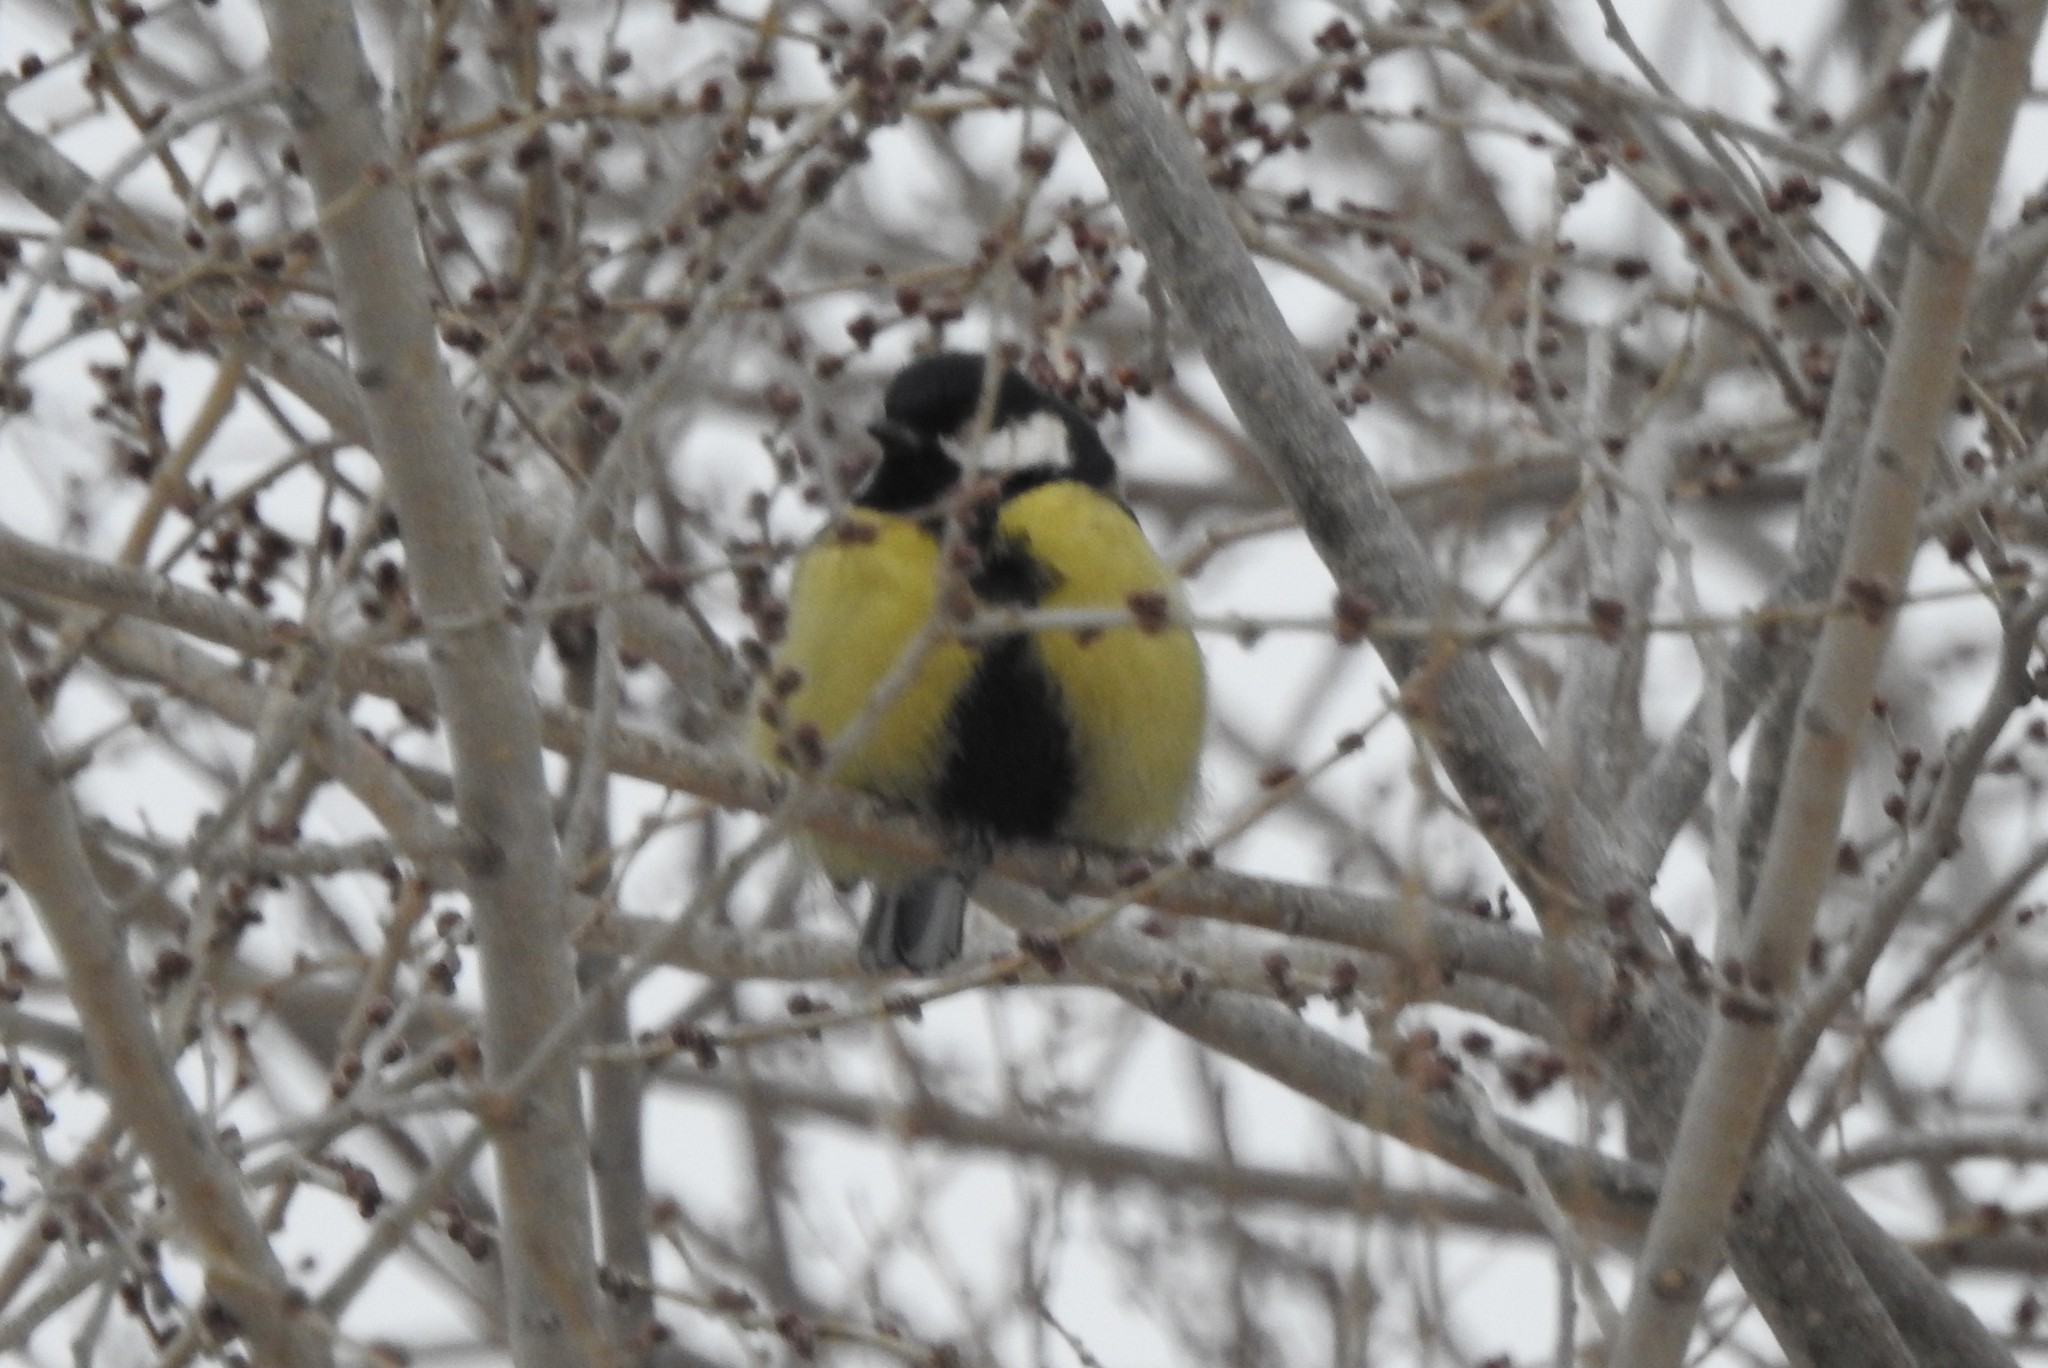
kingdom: Animalia
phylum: Chordata
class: Aves
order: Passeriformes
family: Paridae
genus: Parus
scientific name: Parus major
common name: Great tit
